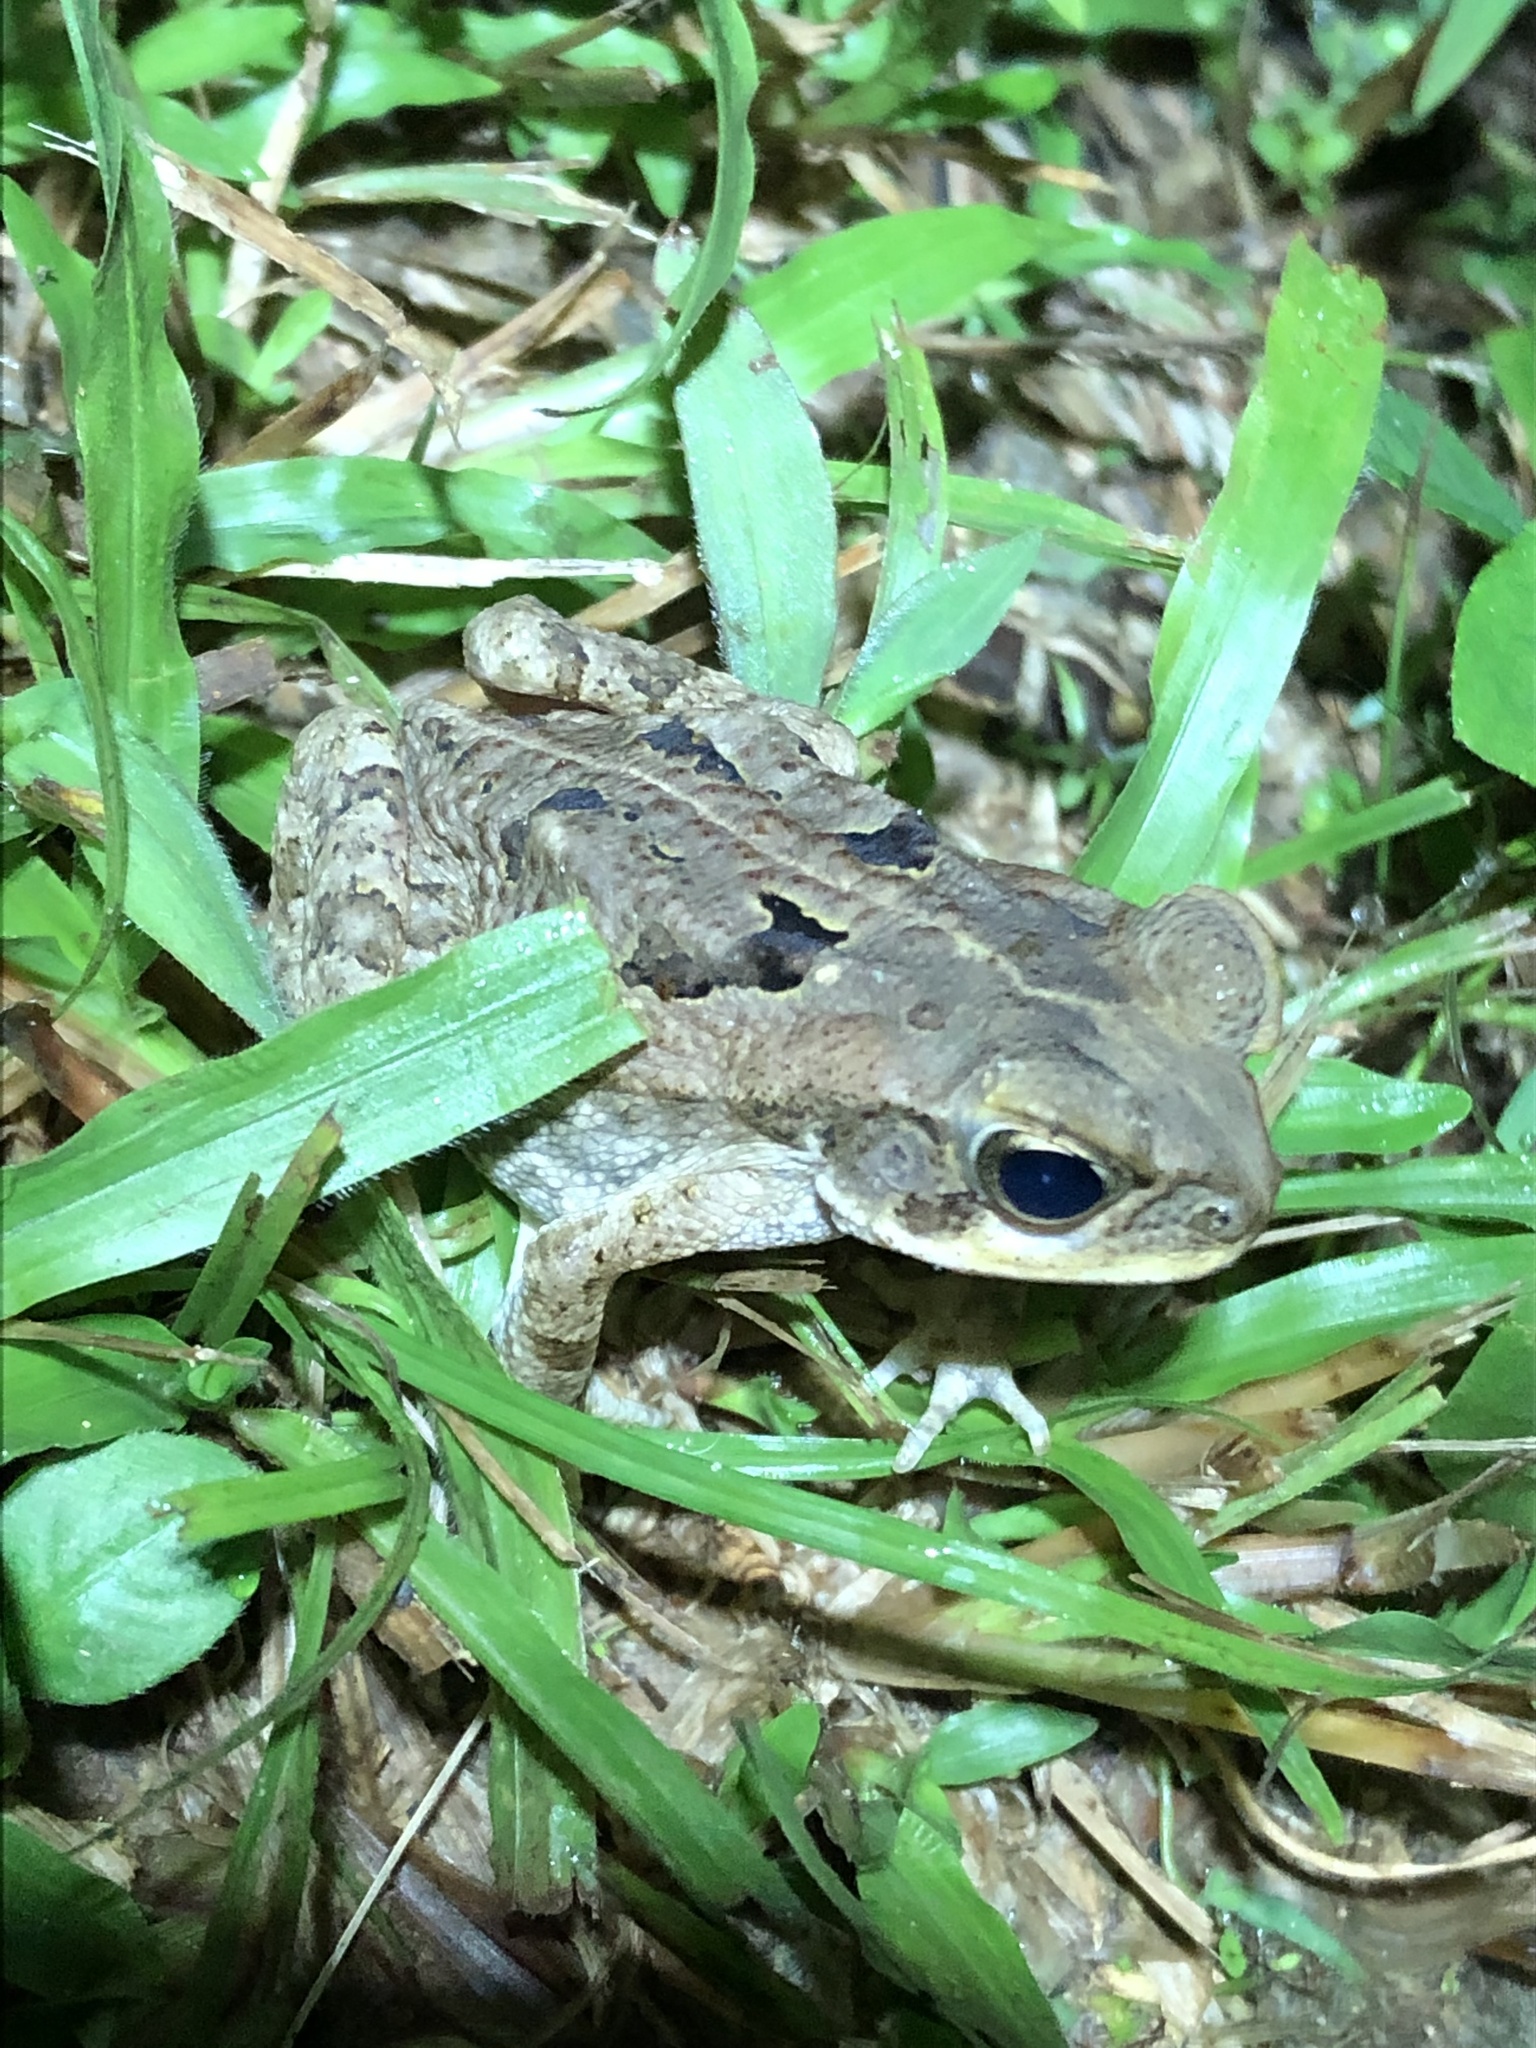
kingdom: Animalia
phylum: Chordata
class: Amphibia
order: Anura
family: Bufonidae
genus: Rhinella
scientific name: Rhinella marina
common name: Cane toad
